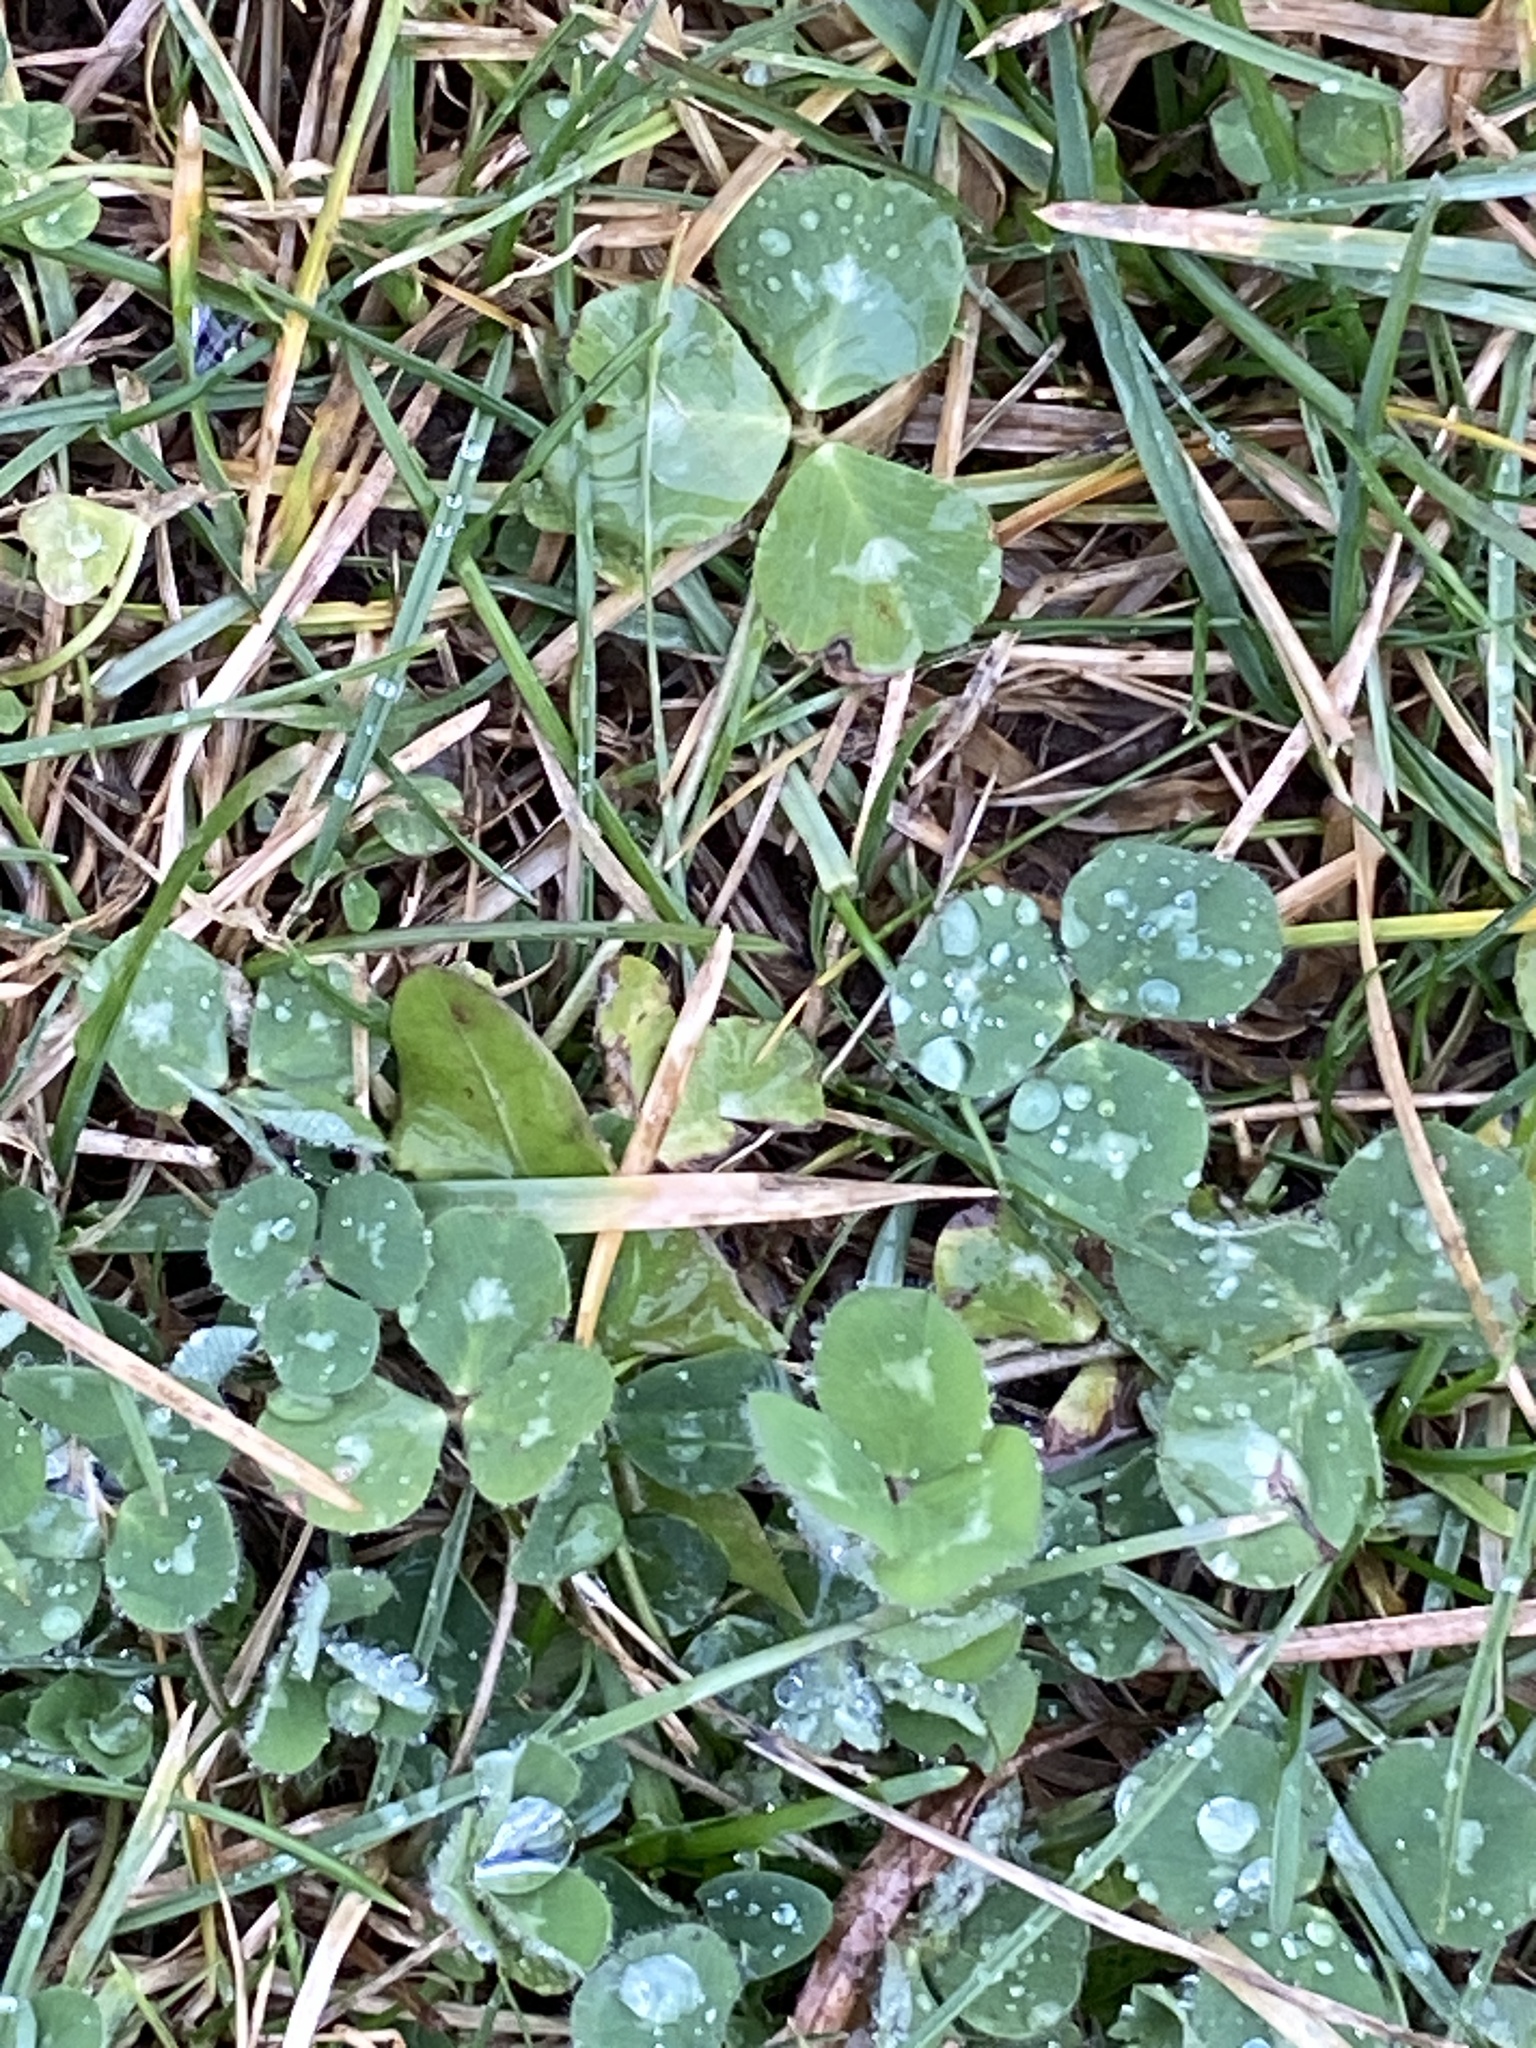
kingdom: Plantae
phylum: Tracheophyta
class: Magnoliopsida
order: Fabales
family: Fabaceae
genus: Trifolium
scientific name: Trifolium repens
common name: White clover
